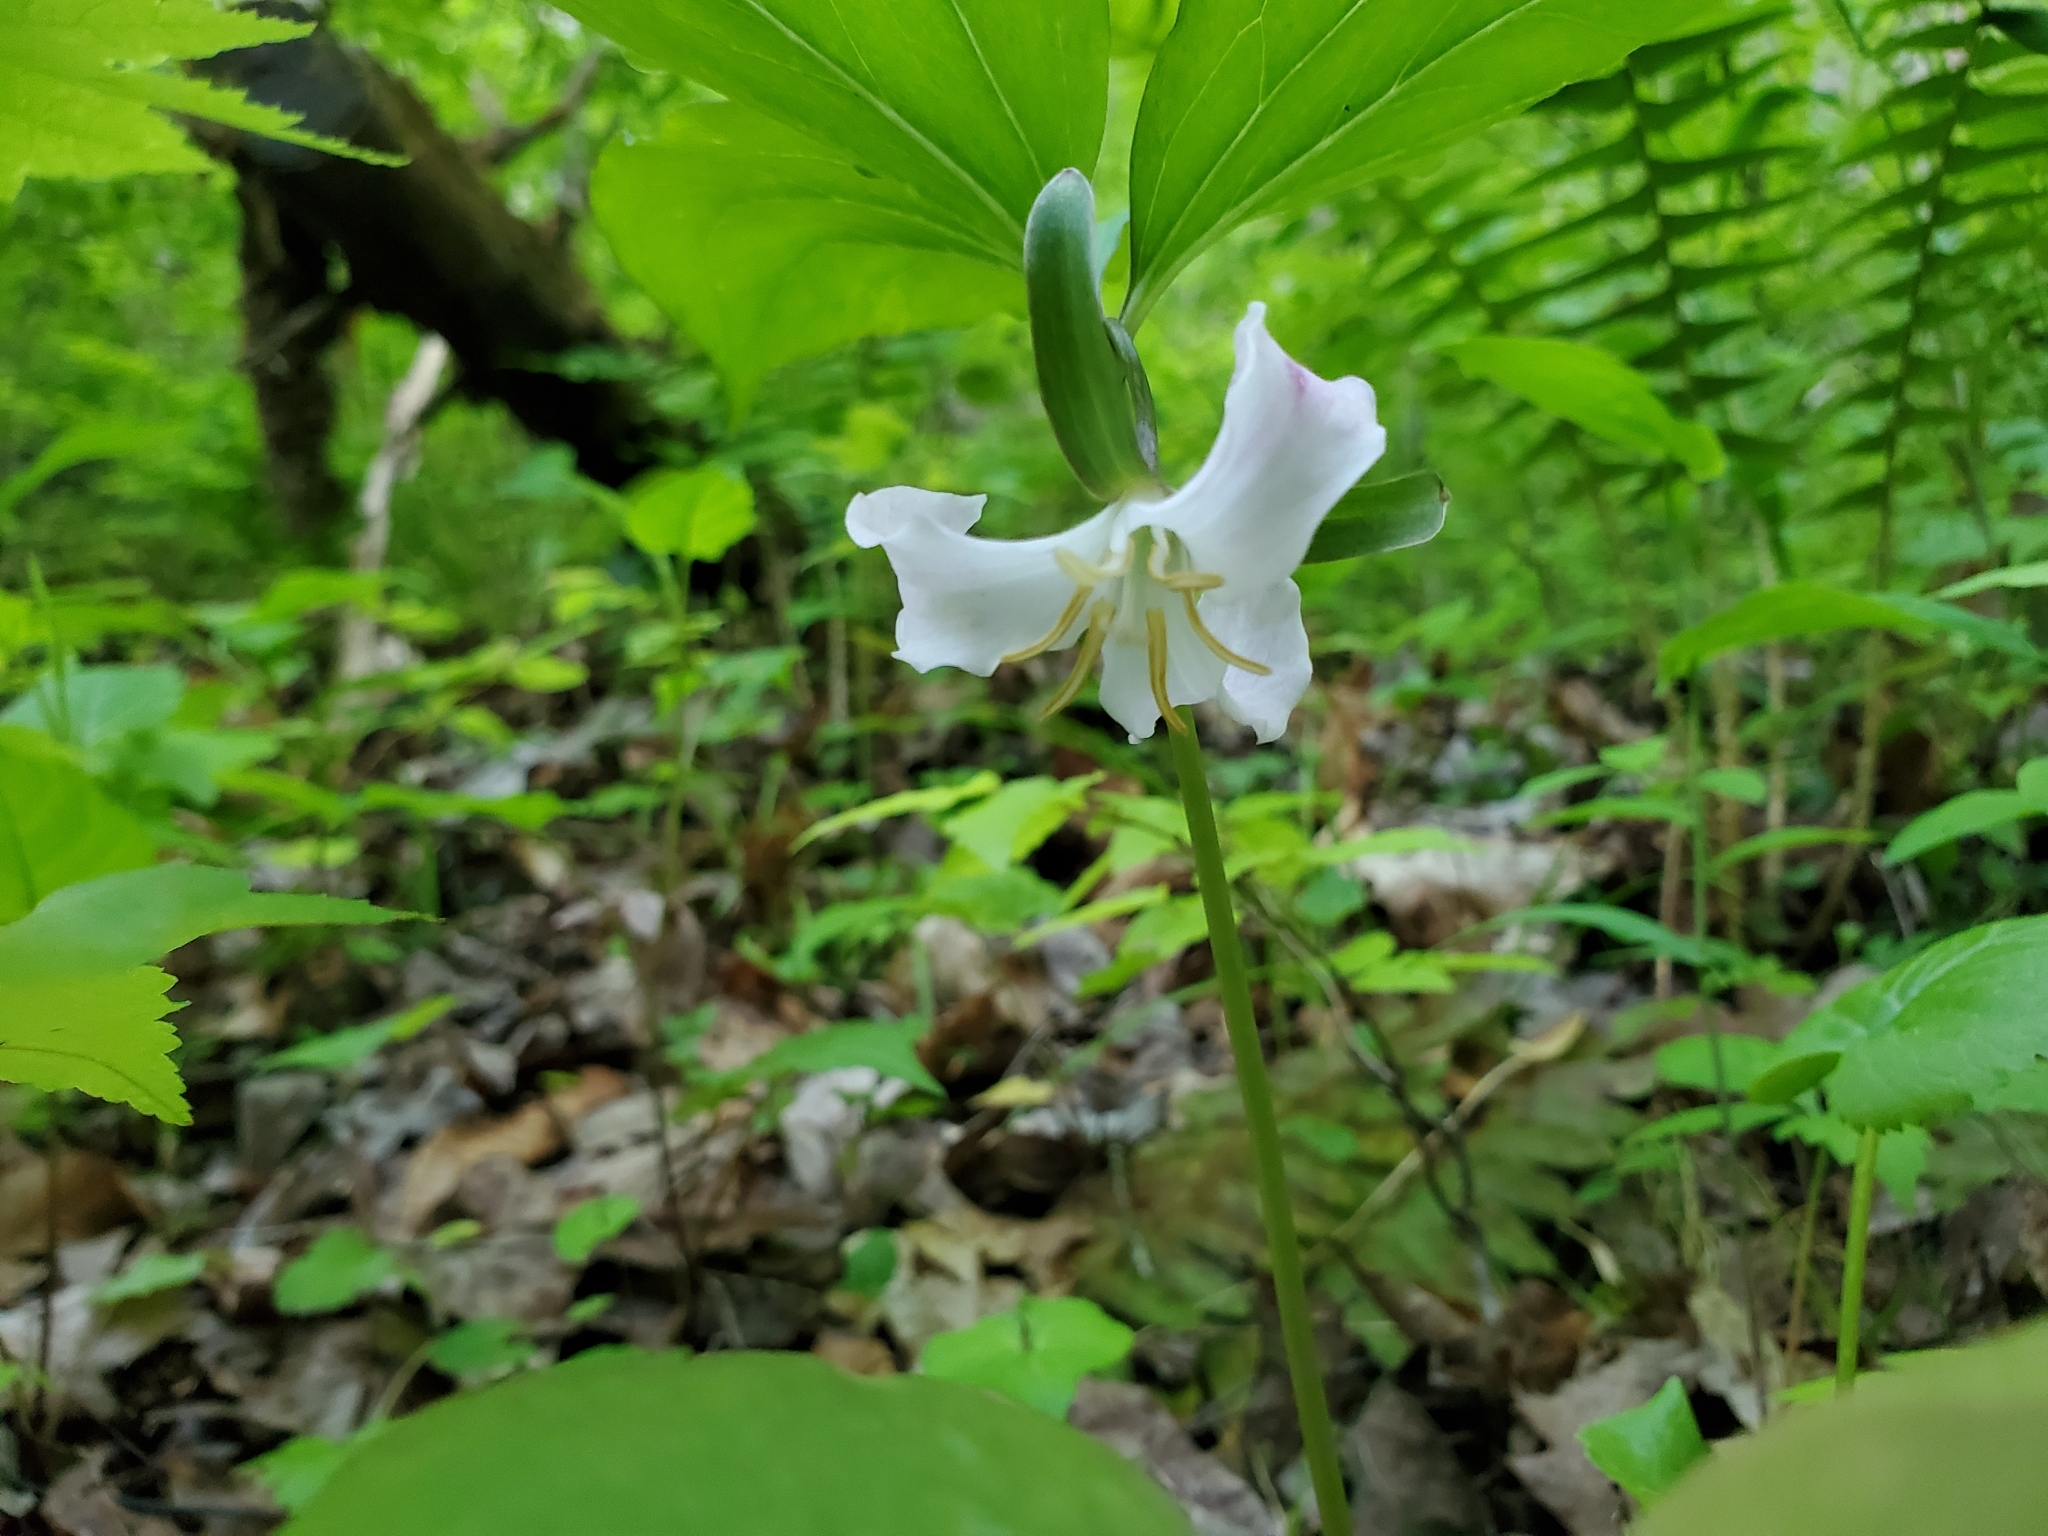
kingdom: Plantae
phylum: Tracheophyta
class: Liliopsida
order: Liliales
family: Melanthiaceae
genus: Trillium
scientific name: Trillium catesbaei
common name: Bashful trillium
